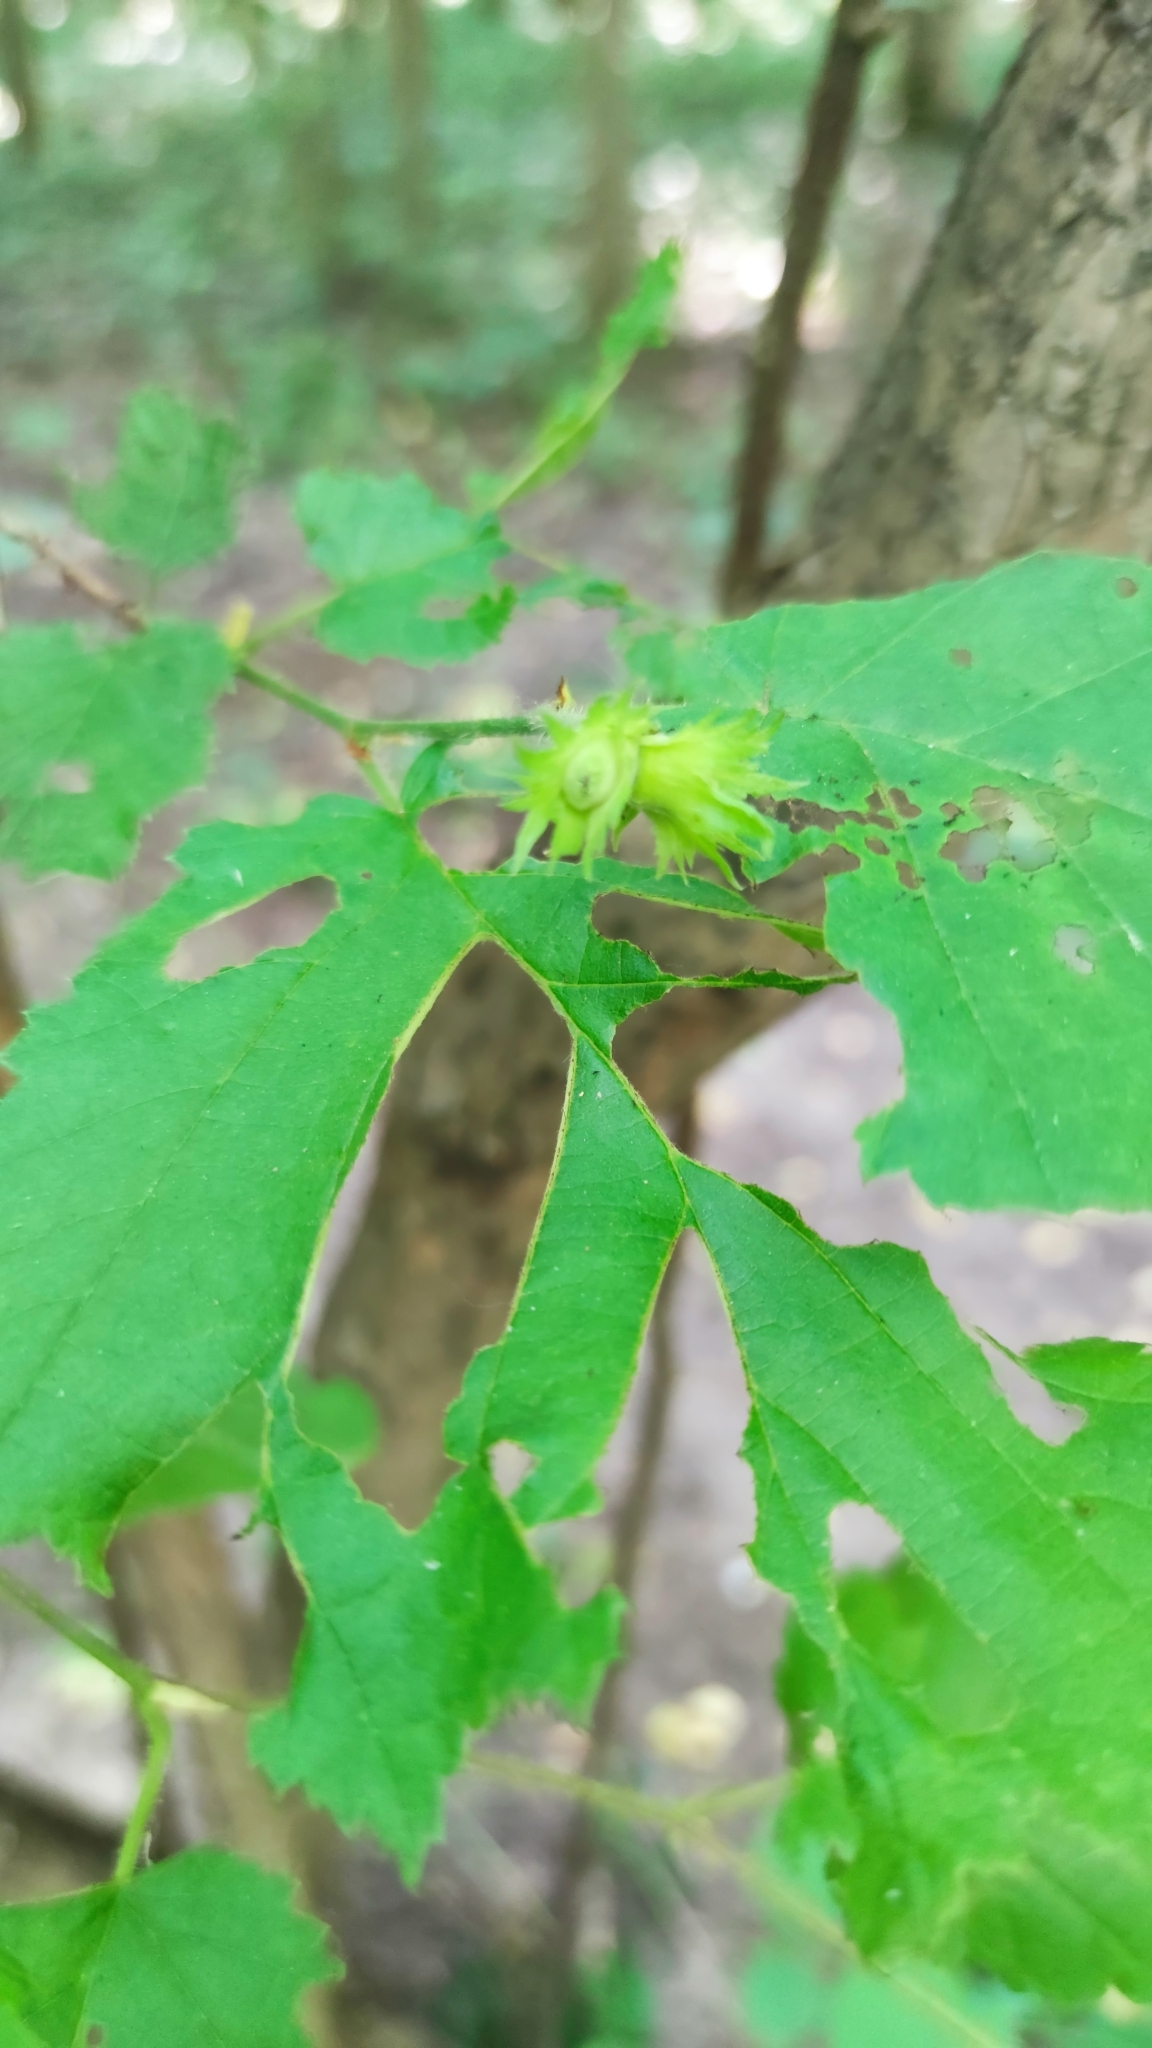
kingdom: Plantae
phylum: Tracheophyta
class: Magnoliopsida
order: Fagales
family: Betulaceae
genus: Corylus
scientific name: Corylus avellana
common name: European hazel
